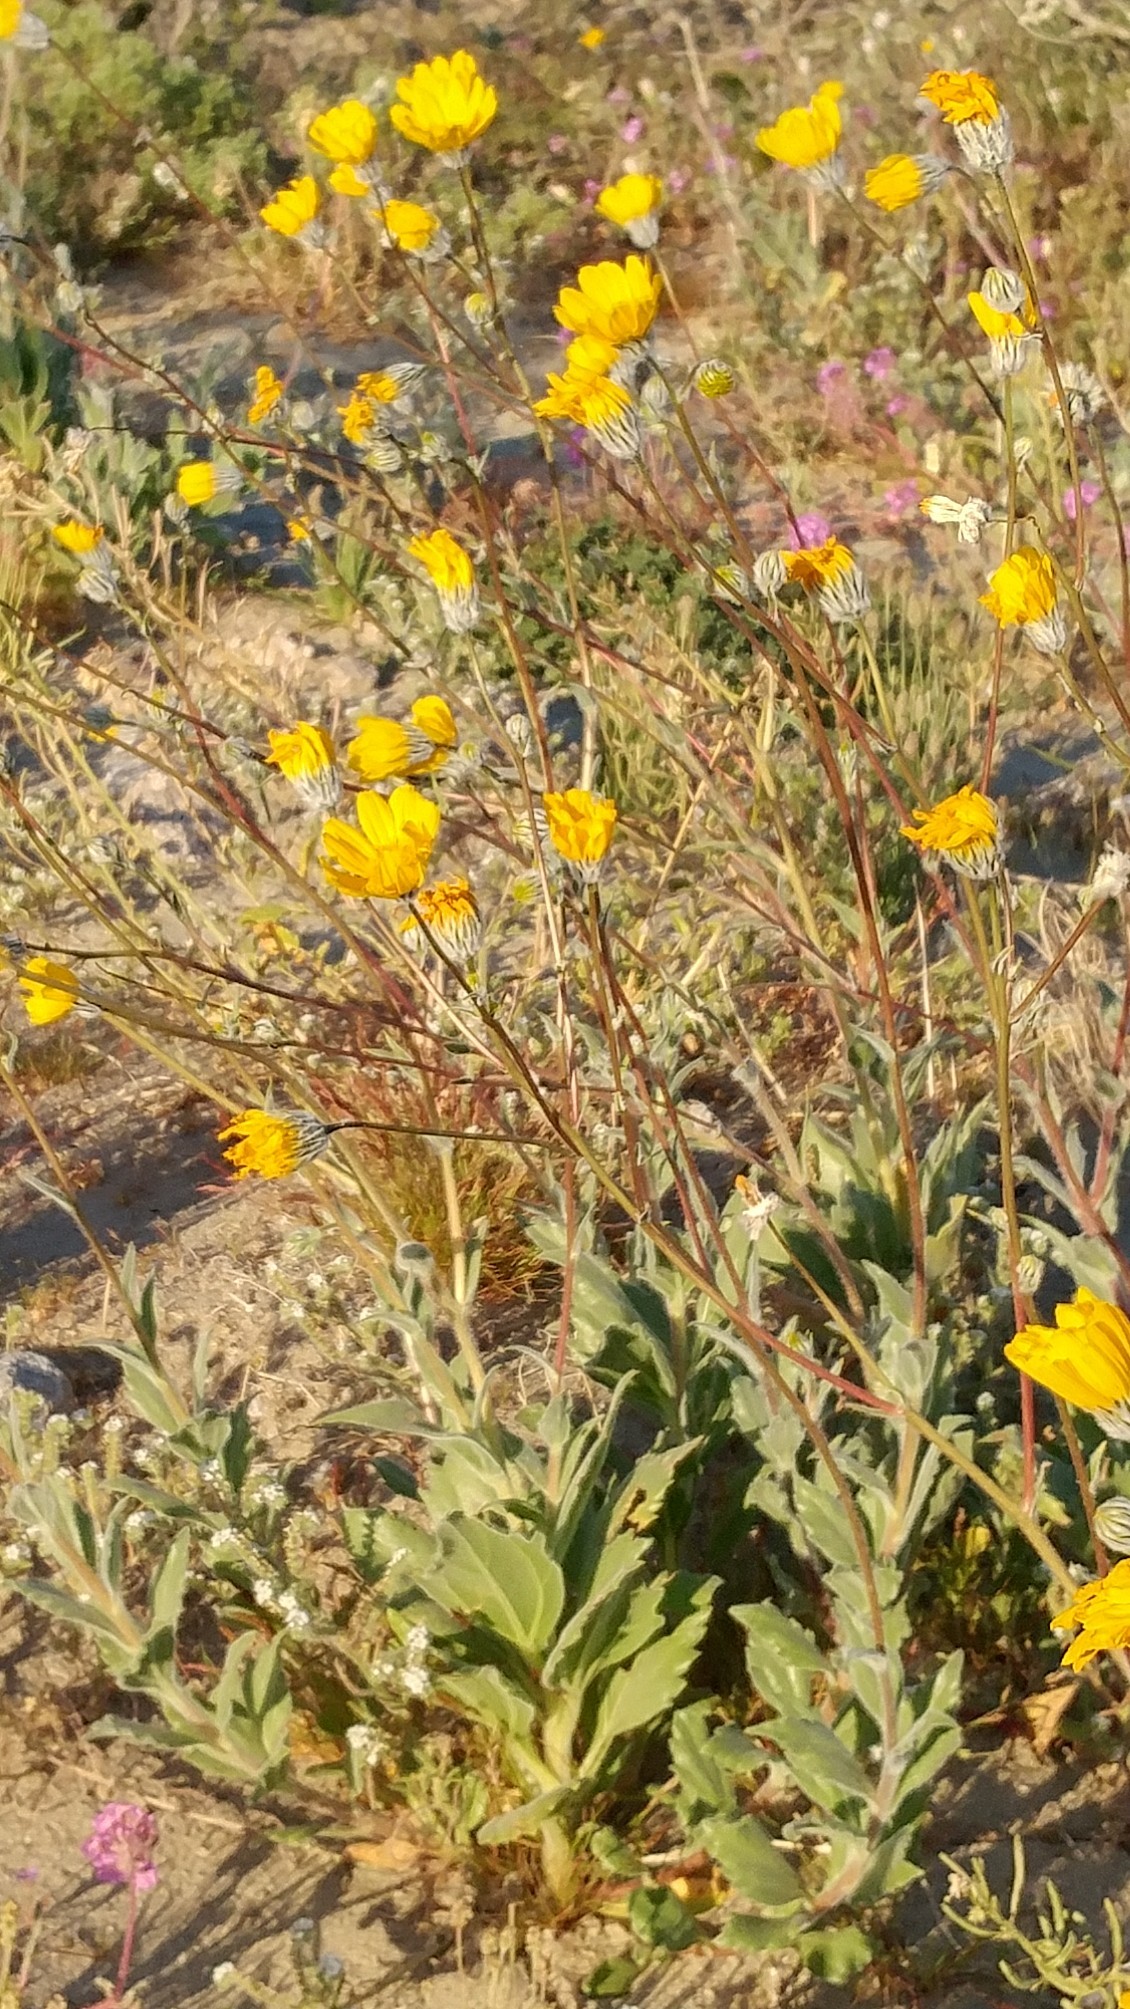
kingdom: Plantae
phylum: Tracheophyta
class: Magnoliopsida
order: Asterales
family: Asteraceae
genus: Geraea
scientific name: Geraea canescens
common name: Desert-gold
